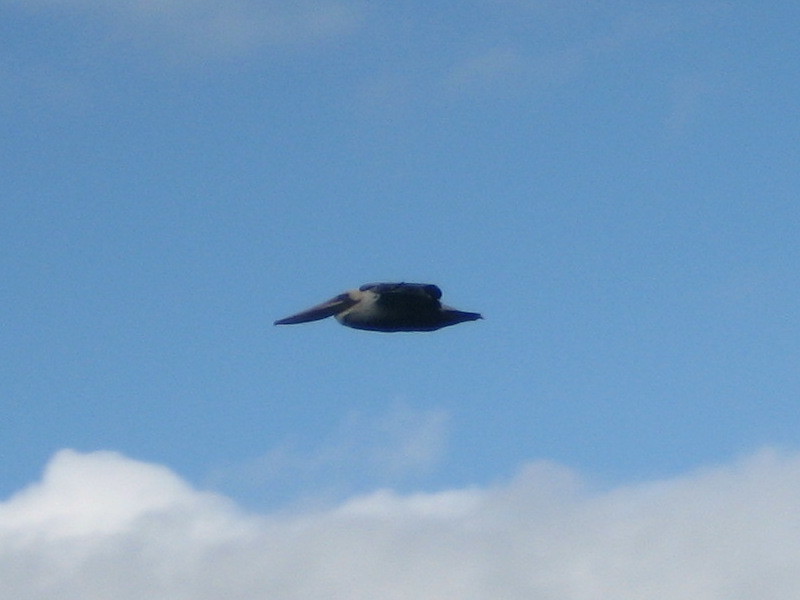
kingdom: Animalia
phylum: Chordata
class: Aves
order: Pelecaniformes
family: Pelecanidae
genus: Pelecanus
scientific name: Pelecanus occidentalis
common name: Brown pelican
